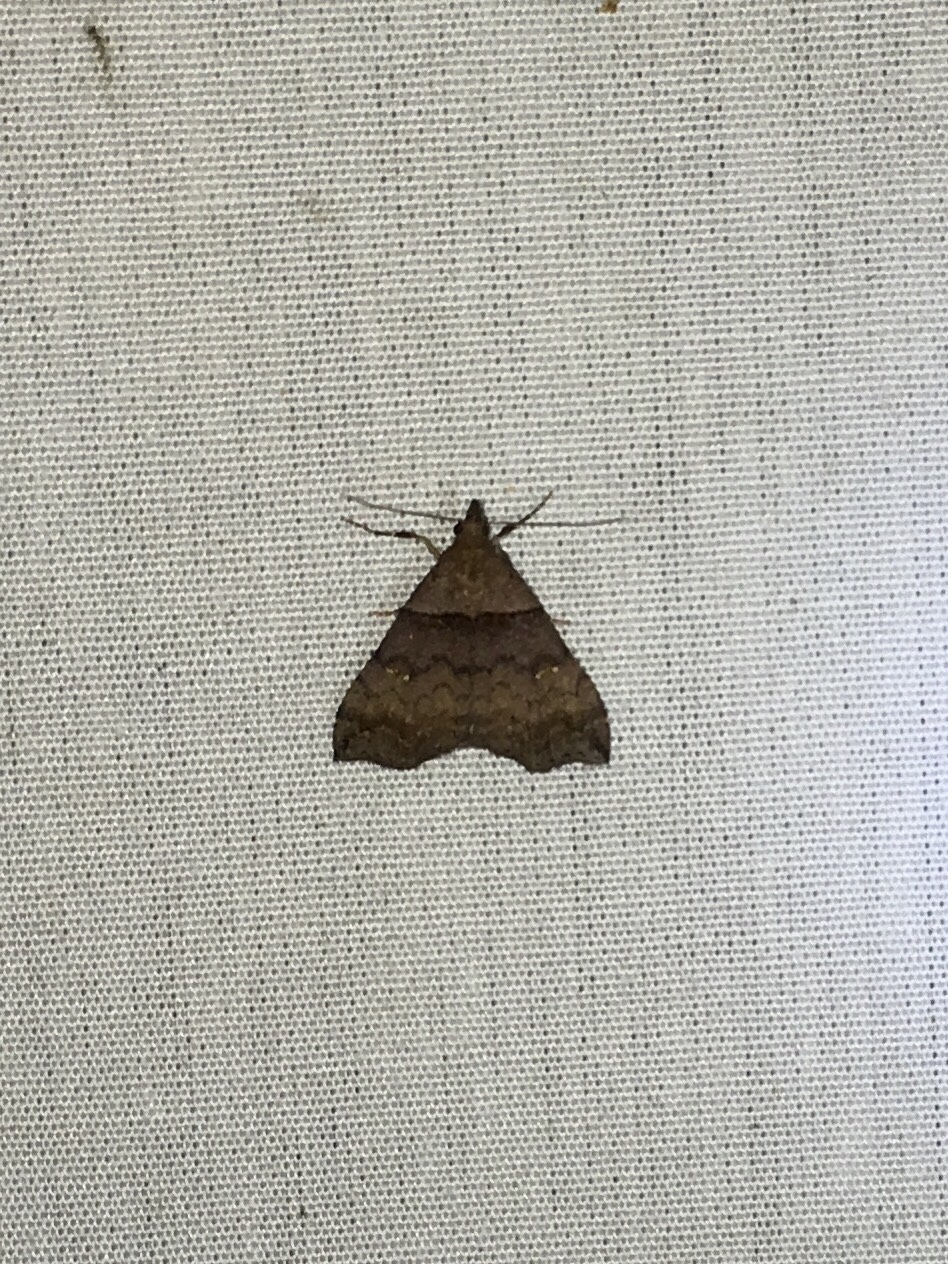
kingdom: Animalia
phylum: Arthropoda
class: Insecta
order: Lepidoptera
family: Erebidae
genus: Lascoria
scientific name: Lascoria ambigualis
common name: Ambiguous moth
